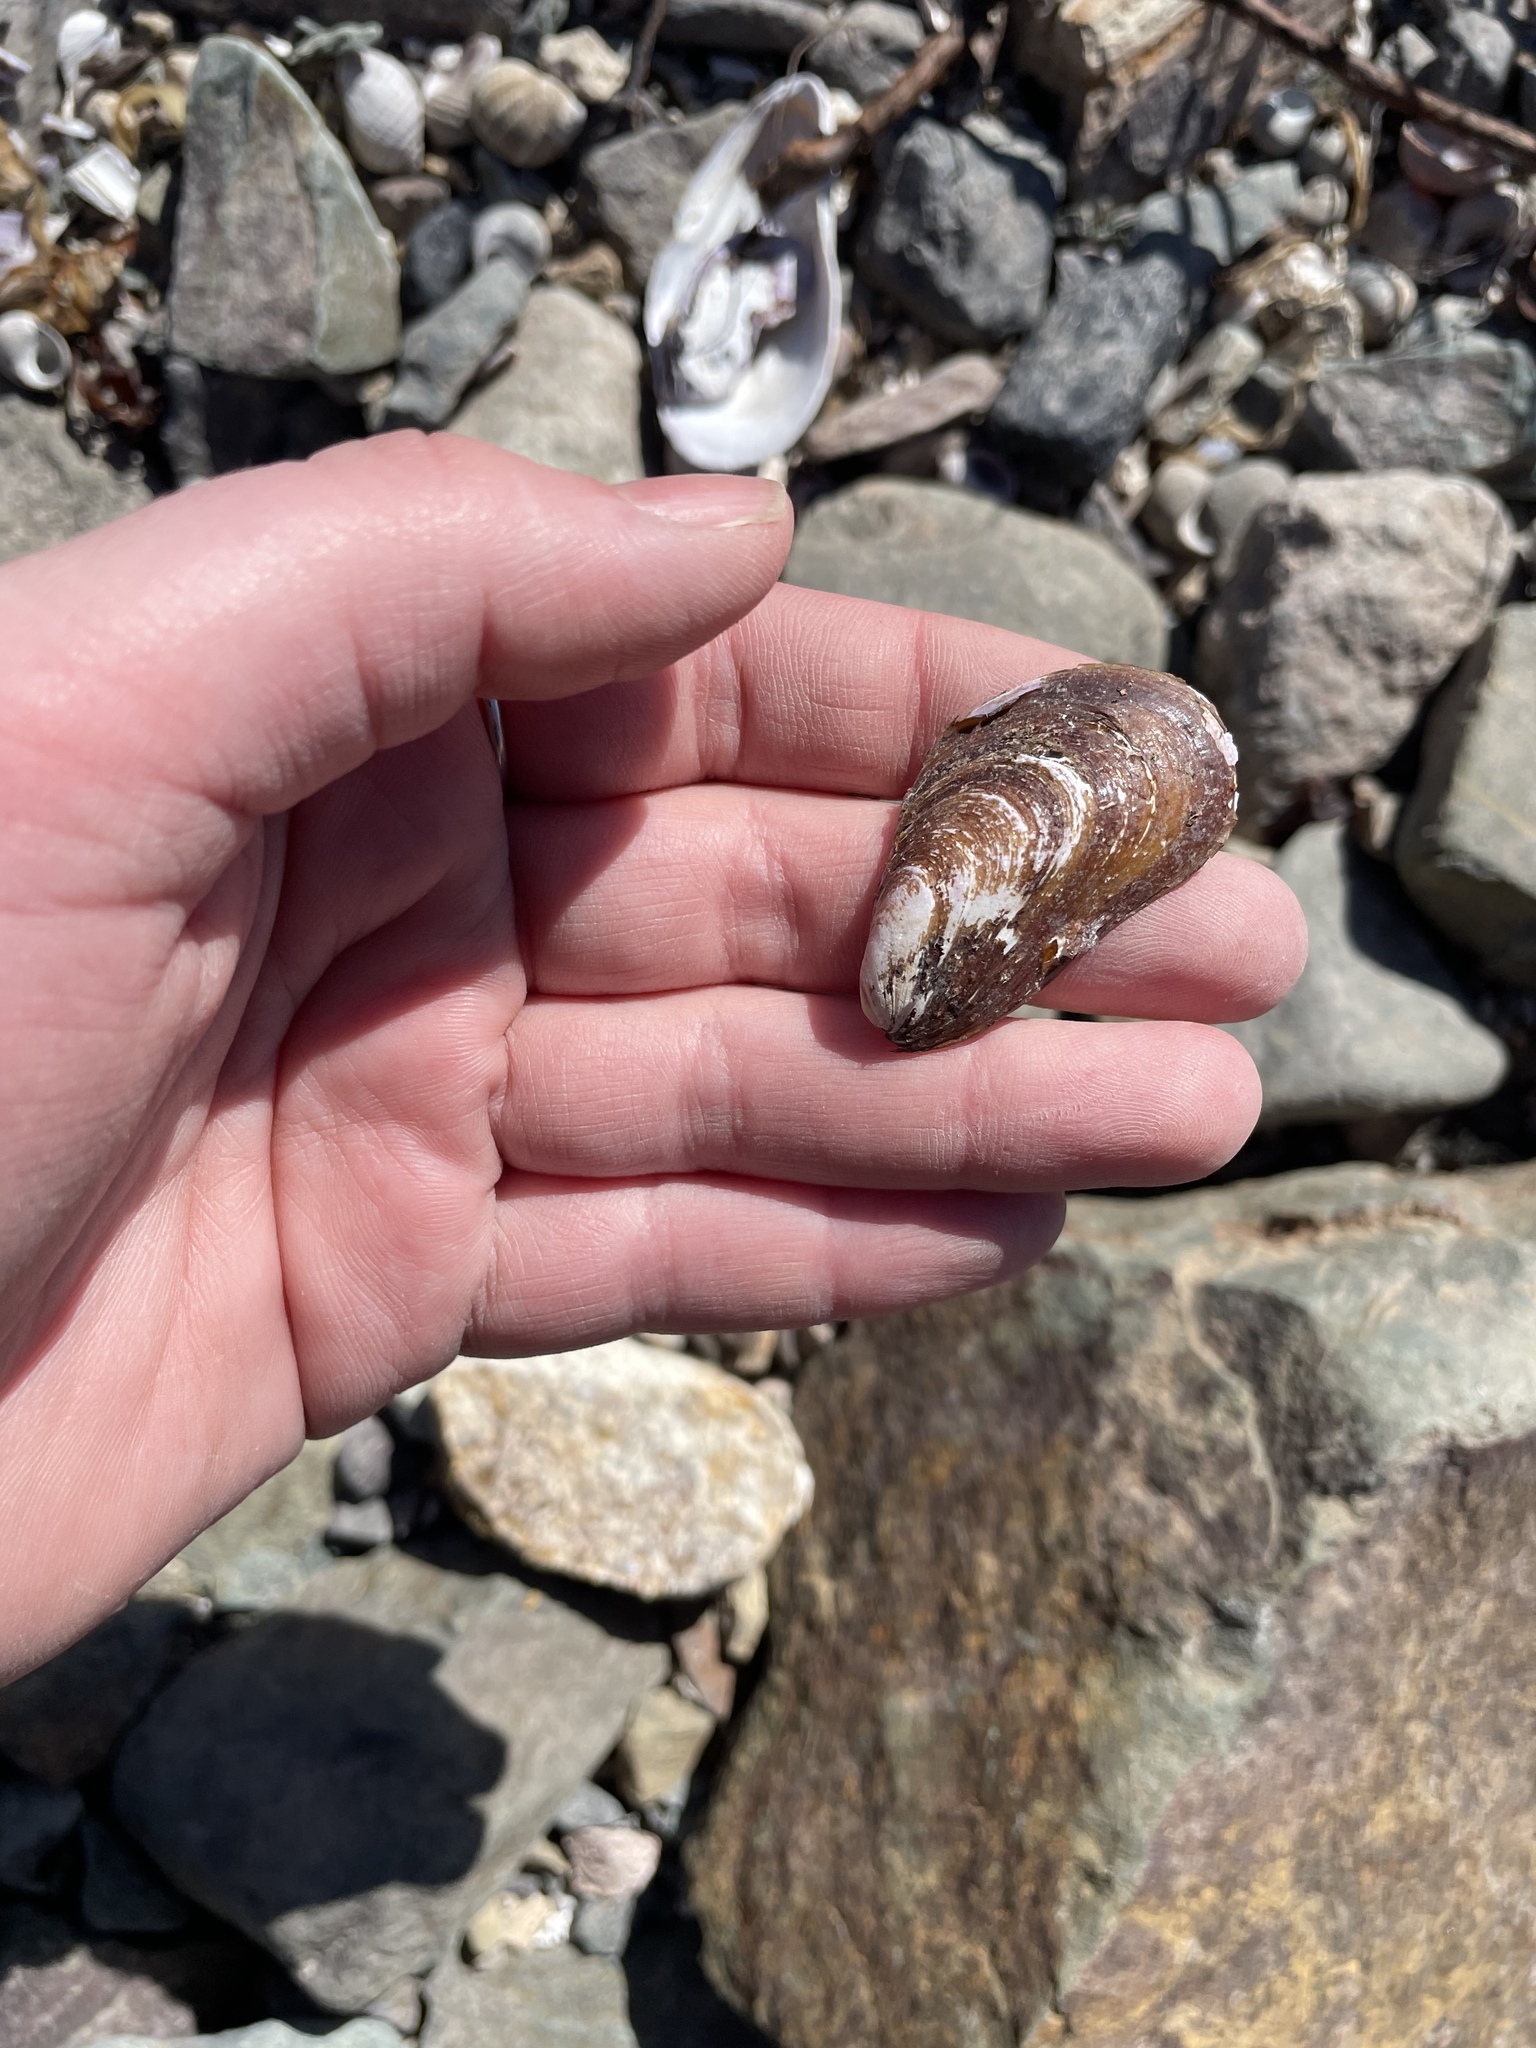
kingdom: Animalia
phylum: Mollusca
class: Bivalvia
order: Mytilida
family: Mytilidae
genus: Modiolus
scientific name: Modiolus modiolus
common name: Horse-mussel
